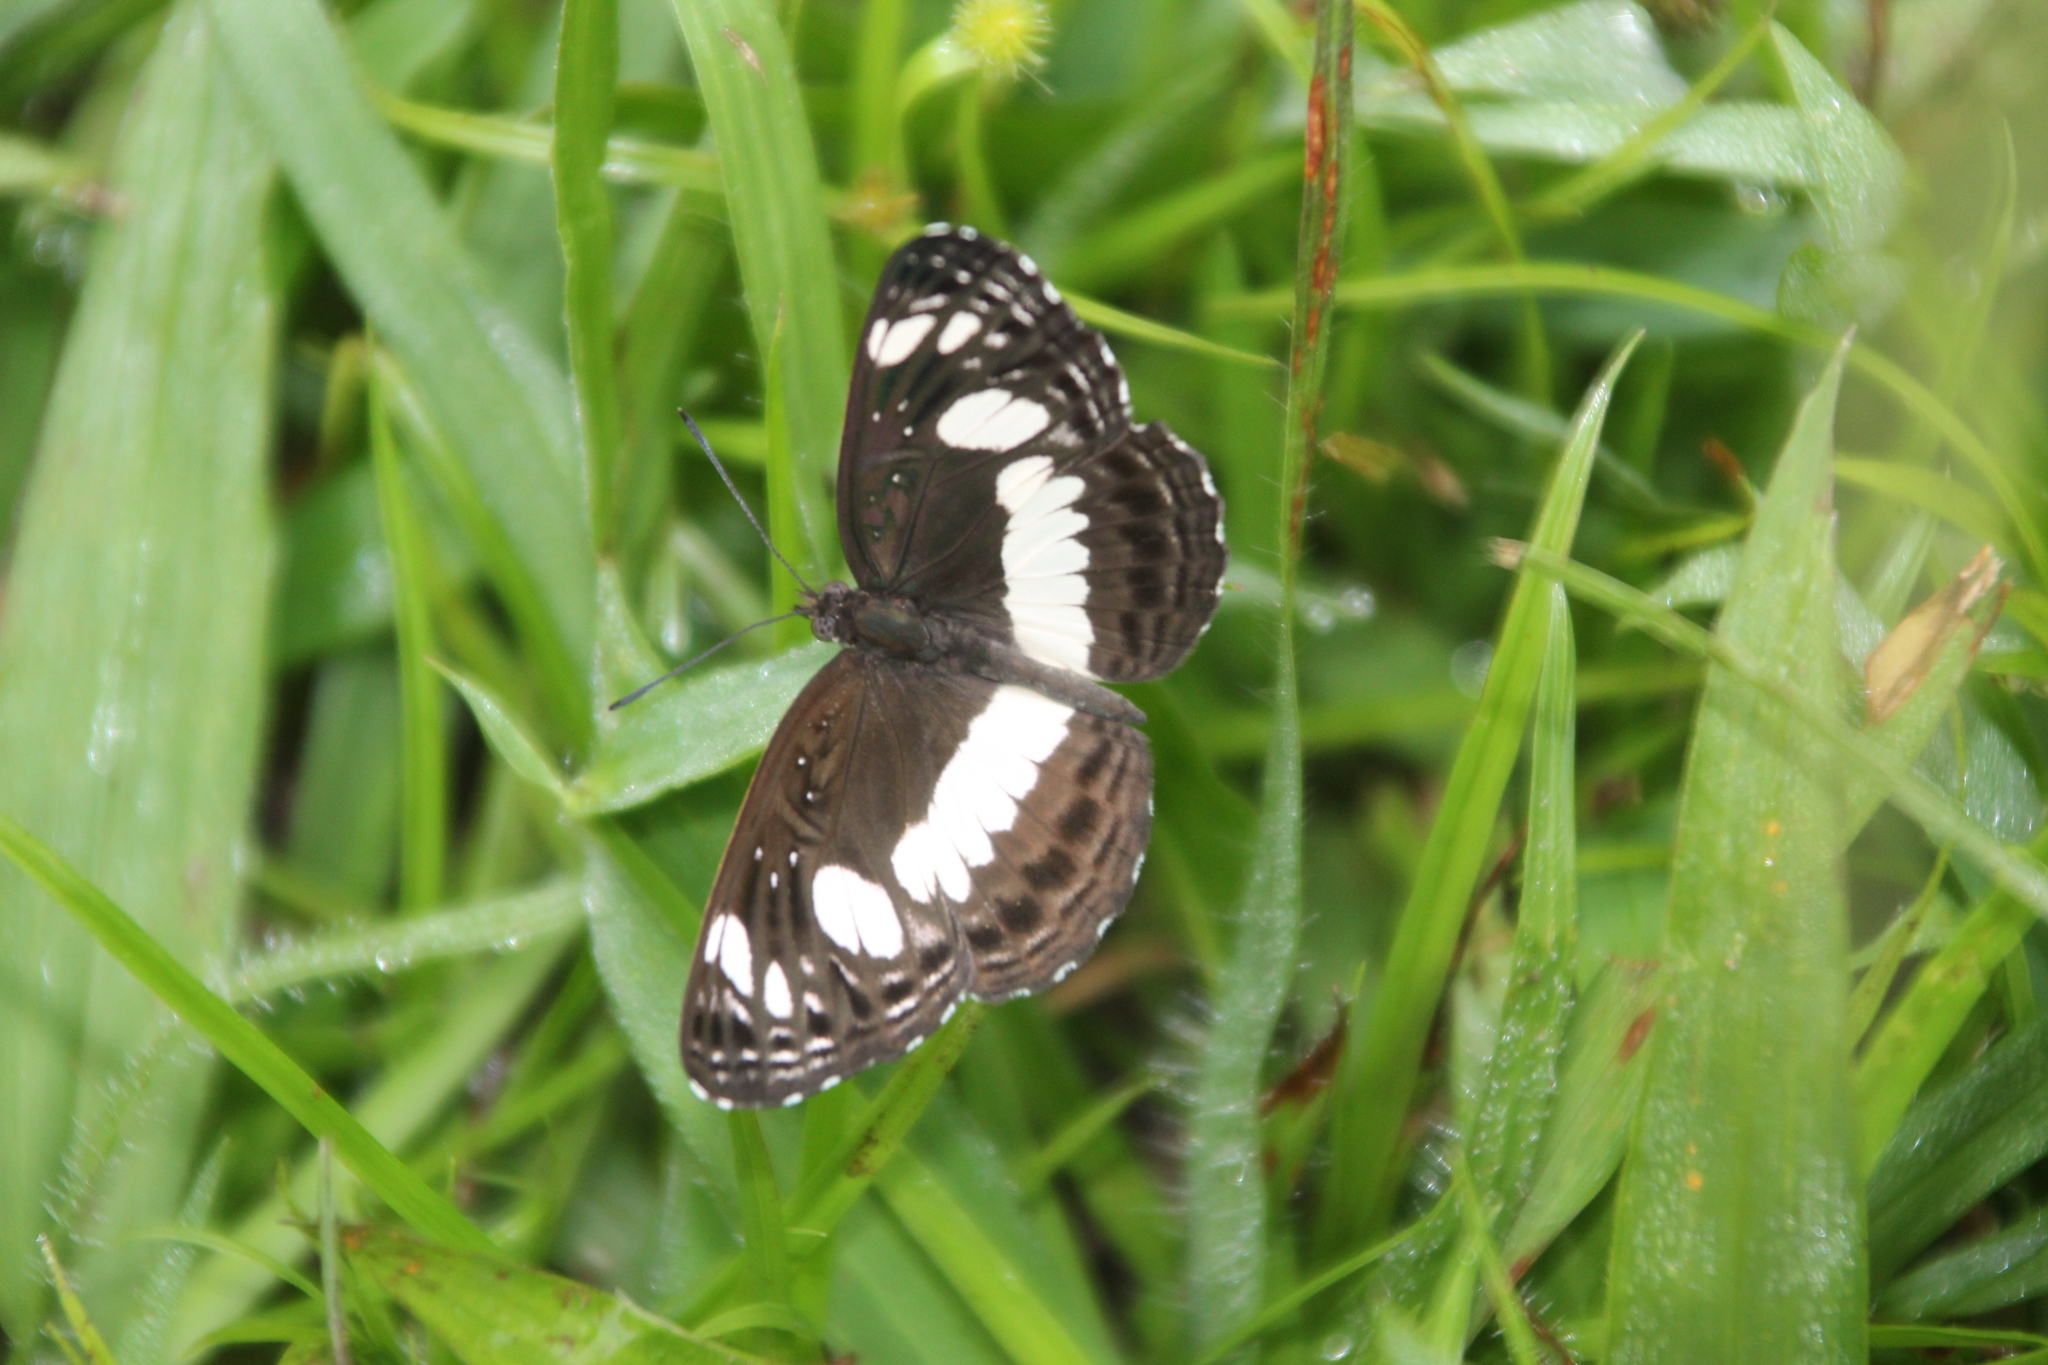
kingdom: Animalia
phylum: Arthropoda
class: Insecta
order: Lepidoptera
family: Nymphalidae
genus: Neptis
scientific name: Neptis saclava
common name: Small spotted sailor
